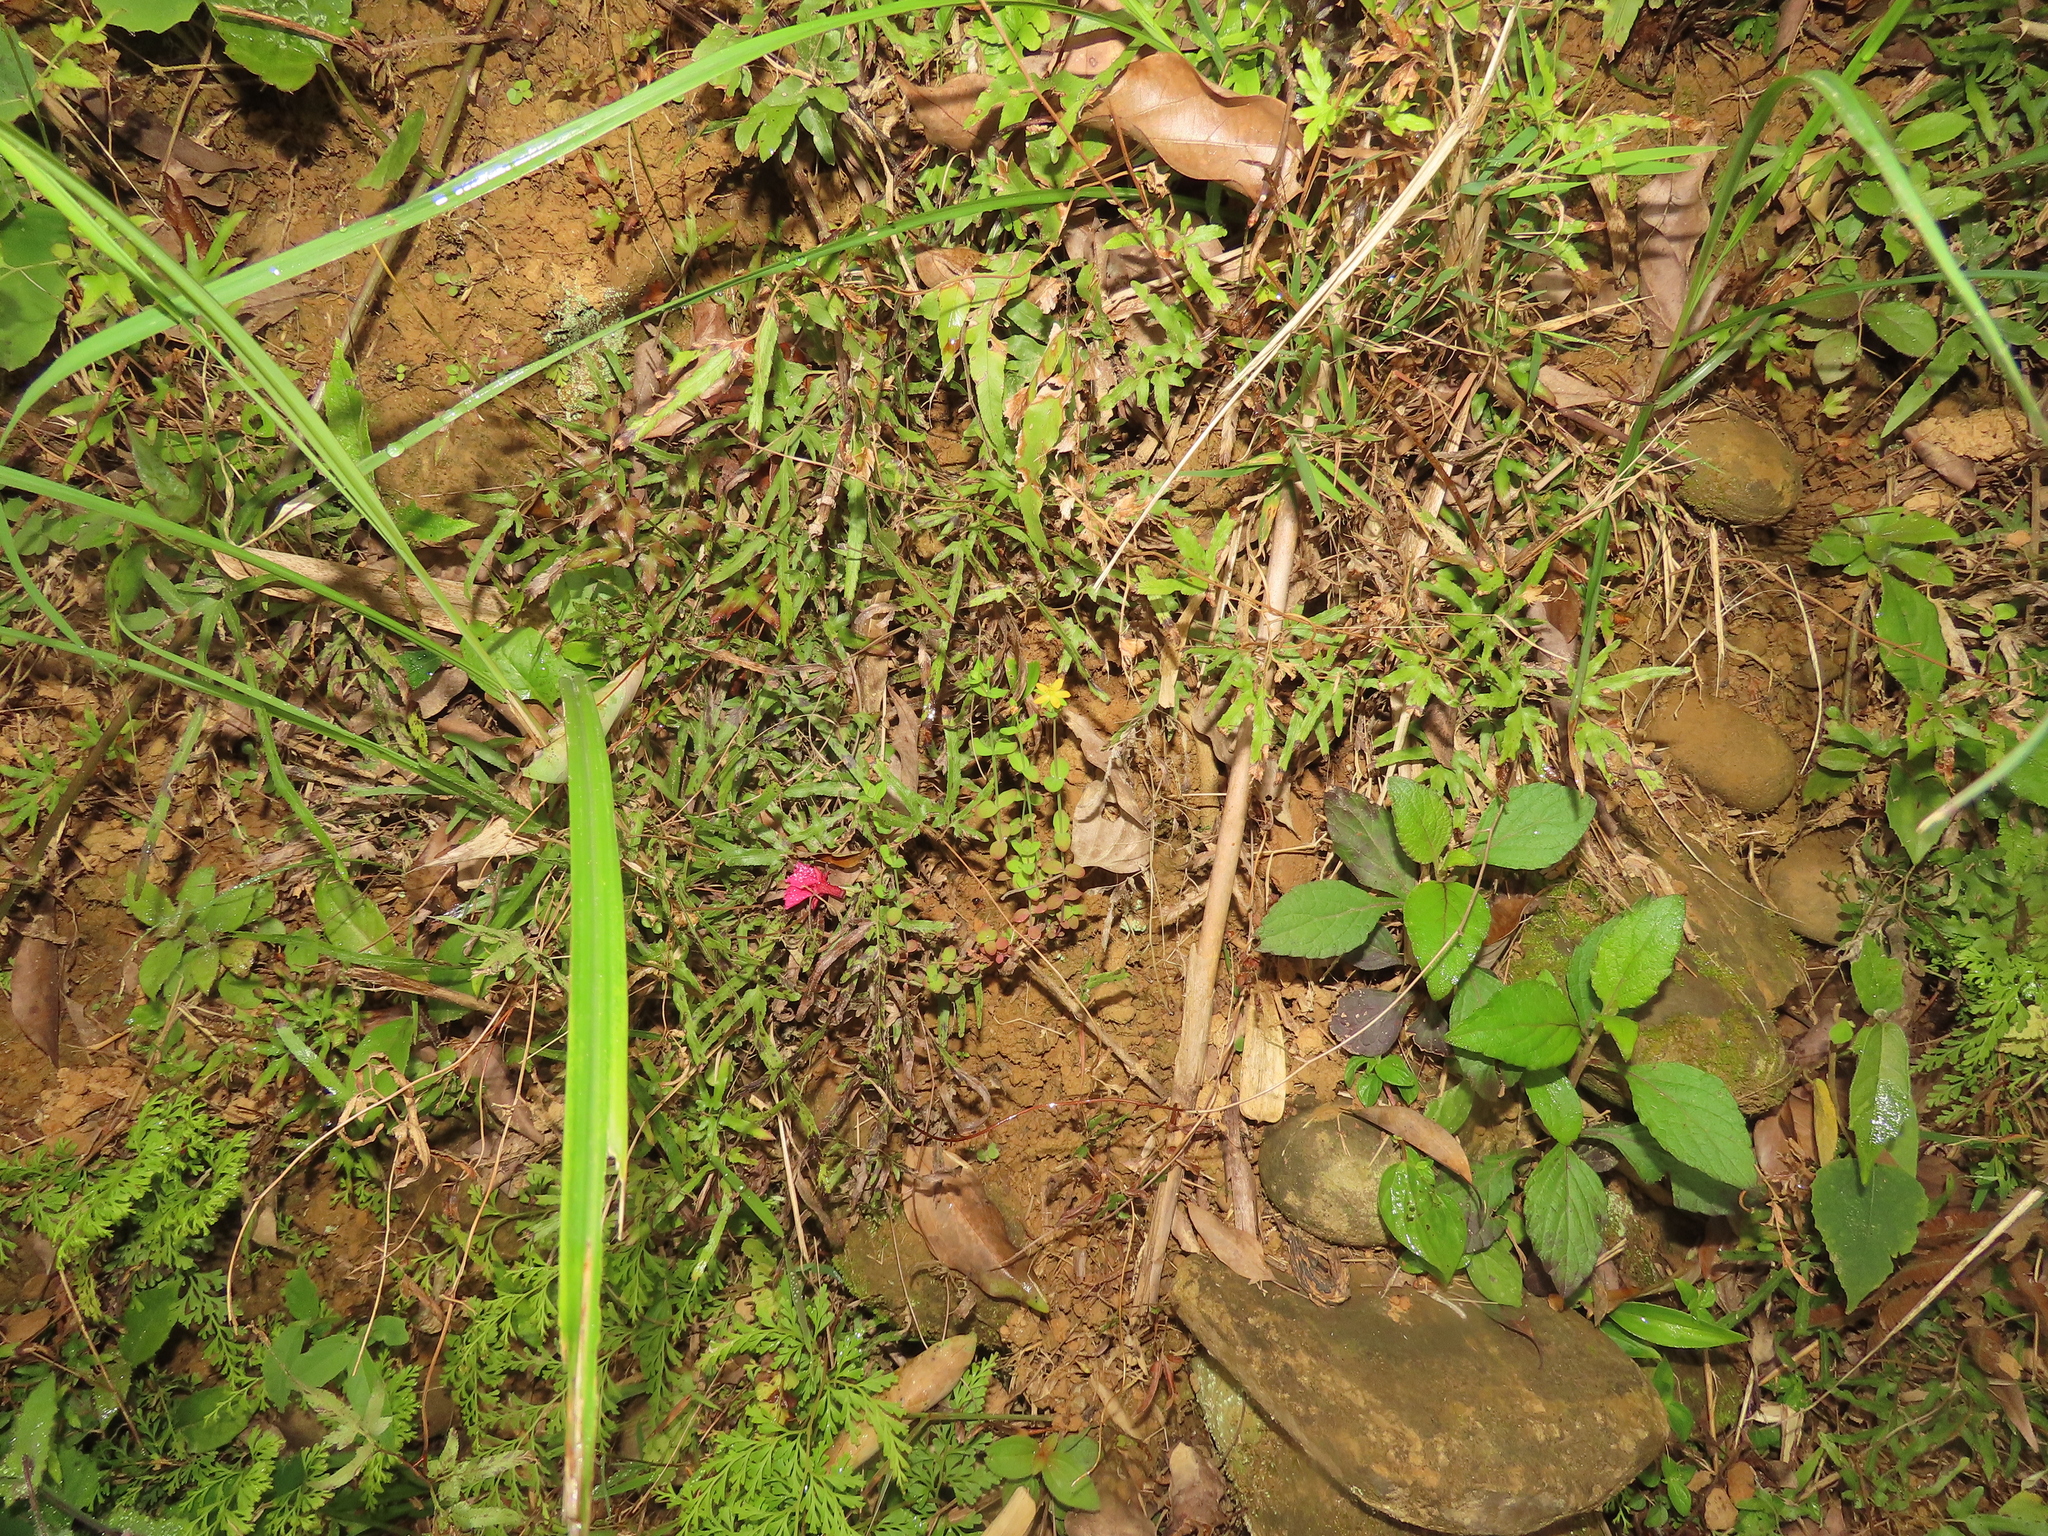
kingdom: Plantae
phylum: Tracheophyta
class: Magnoliopsida
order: Malpighiales
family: Hypericaceae
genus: Hypericum
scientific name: Hypericum japonicum
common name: Matted st. john's-wort
